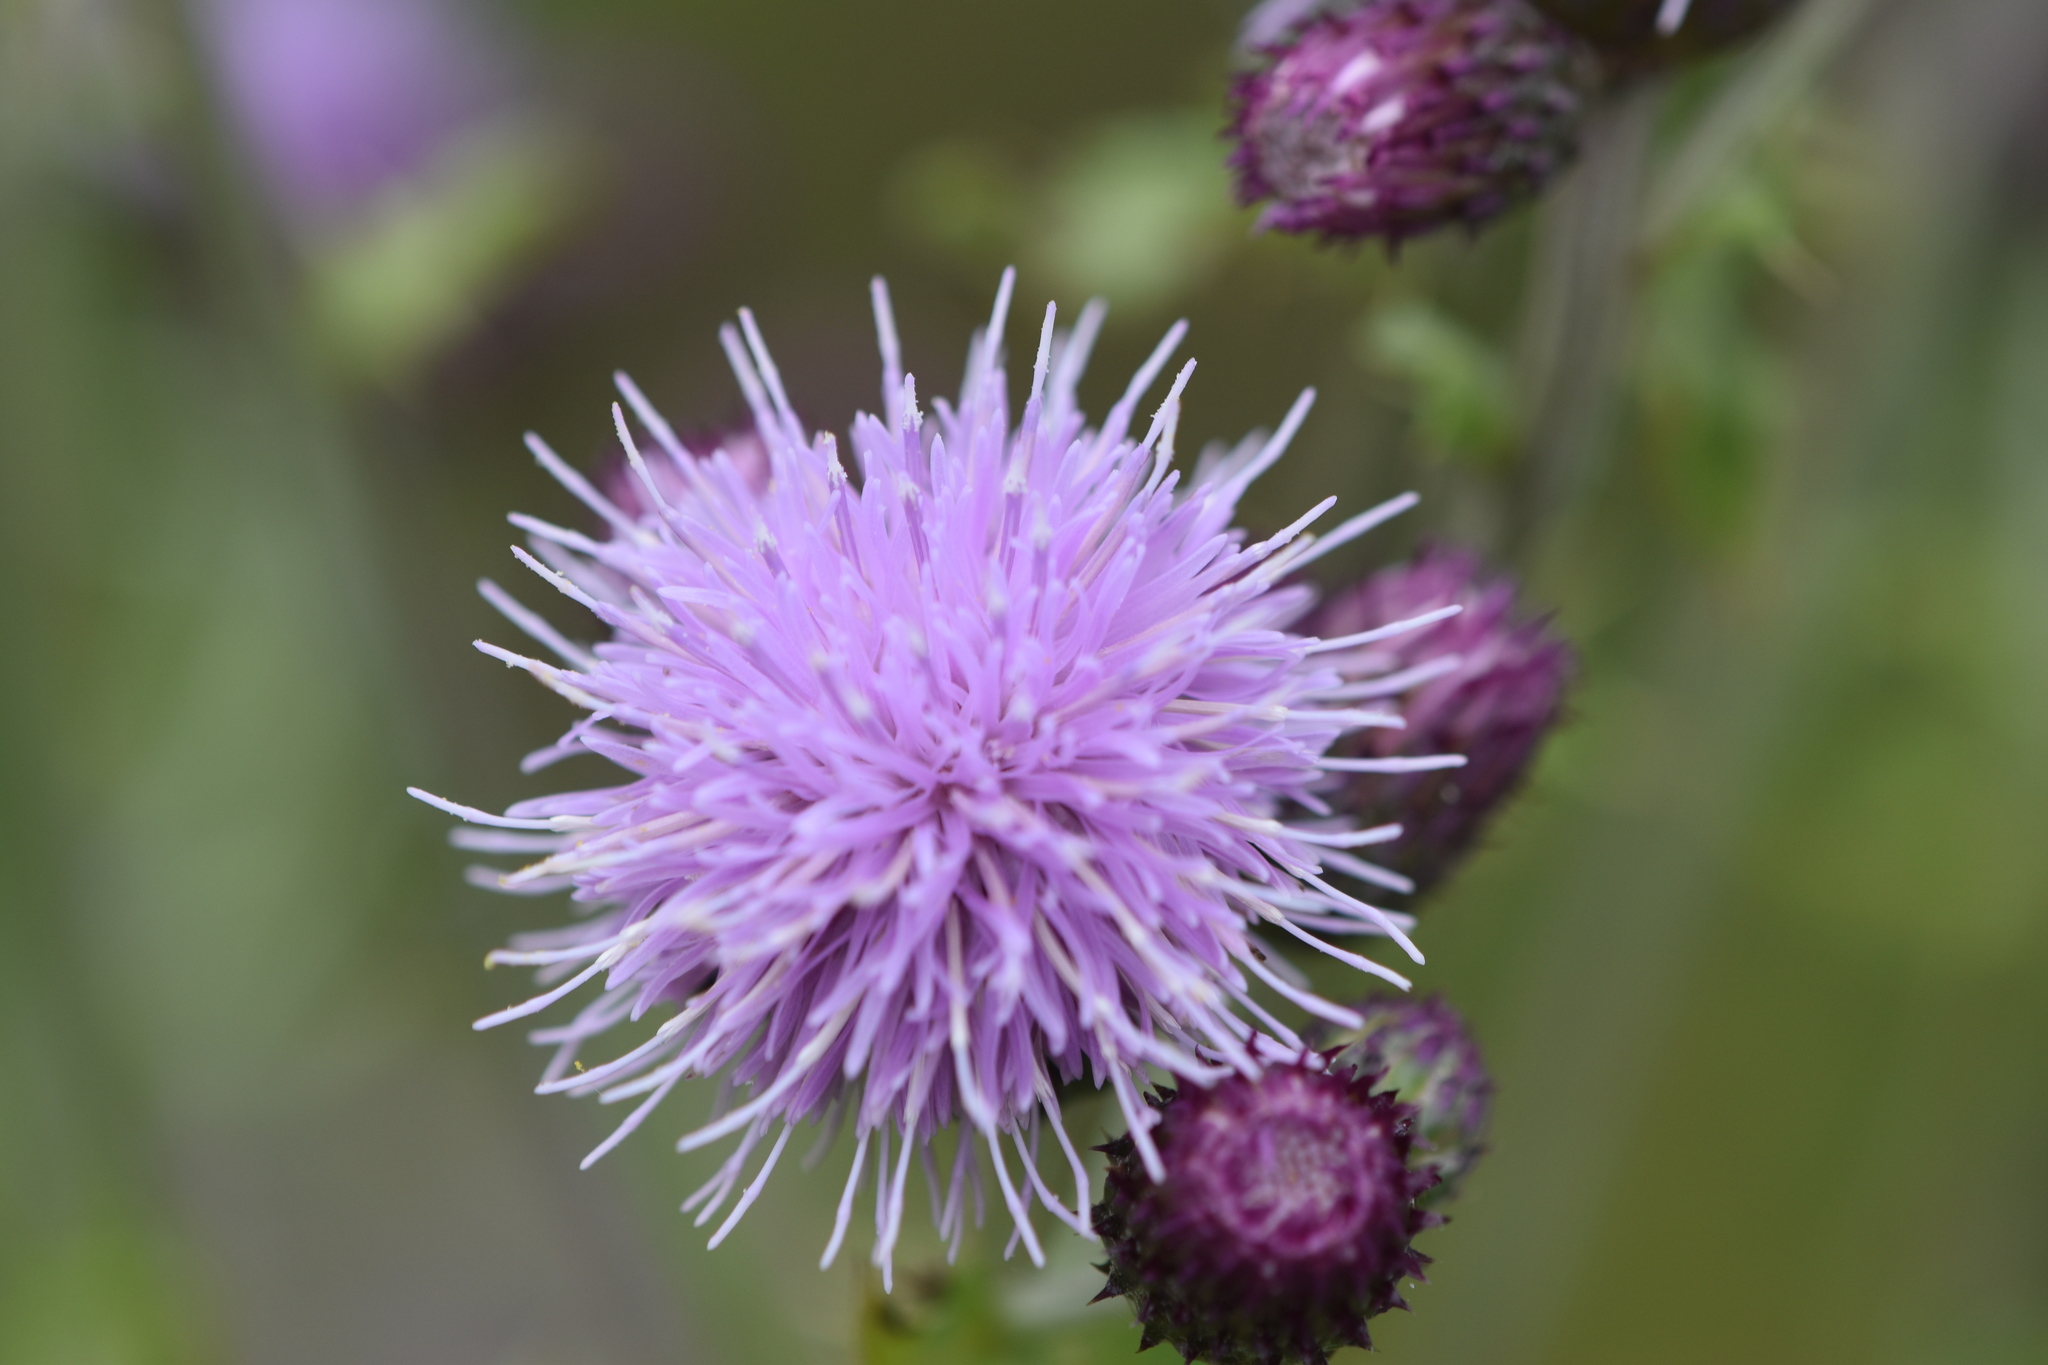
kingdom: Plantae
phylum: Tracheophyta
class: Magnoliopsida
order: Asterales
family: Asteraceae
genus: Cirsium
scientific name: Cirsium arvense
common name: Creeping thistle
